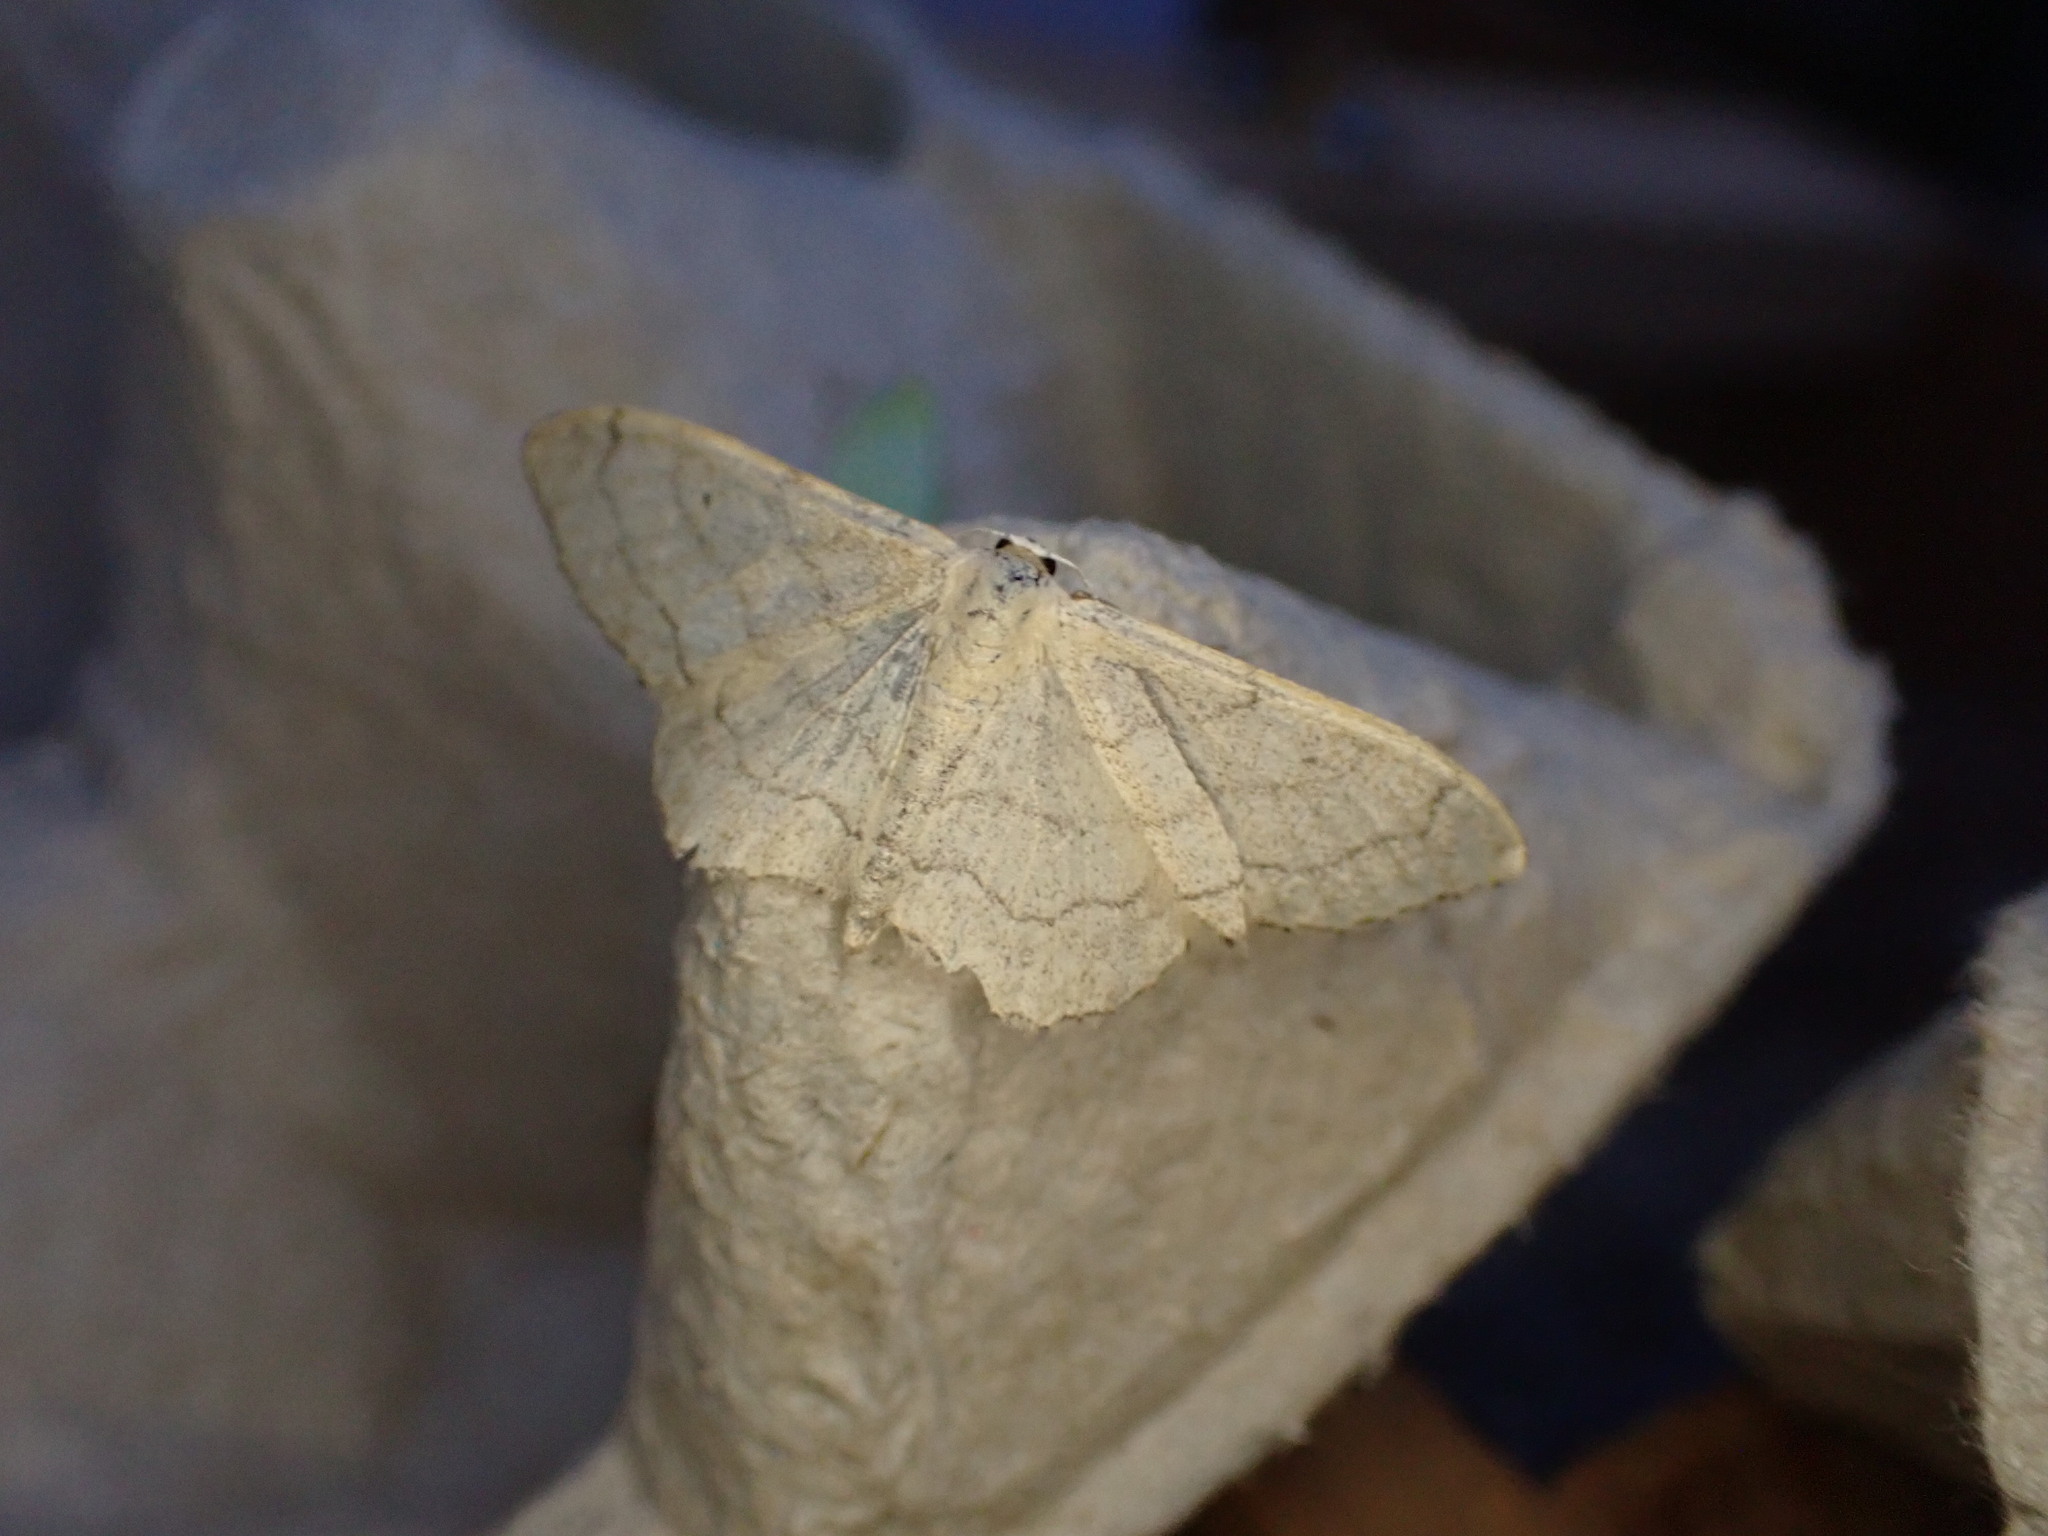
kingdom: Animalia
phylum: Arthropoda
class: Insecta
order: Lepidoptera
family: Geometridae
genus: Idaea
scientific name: Idaea aversata
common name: Riband wave
